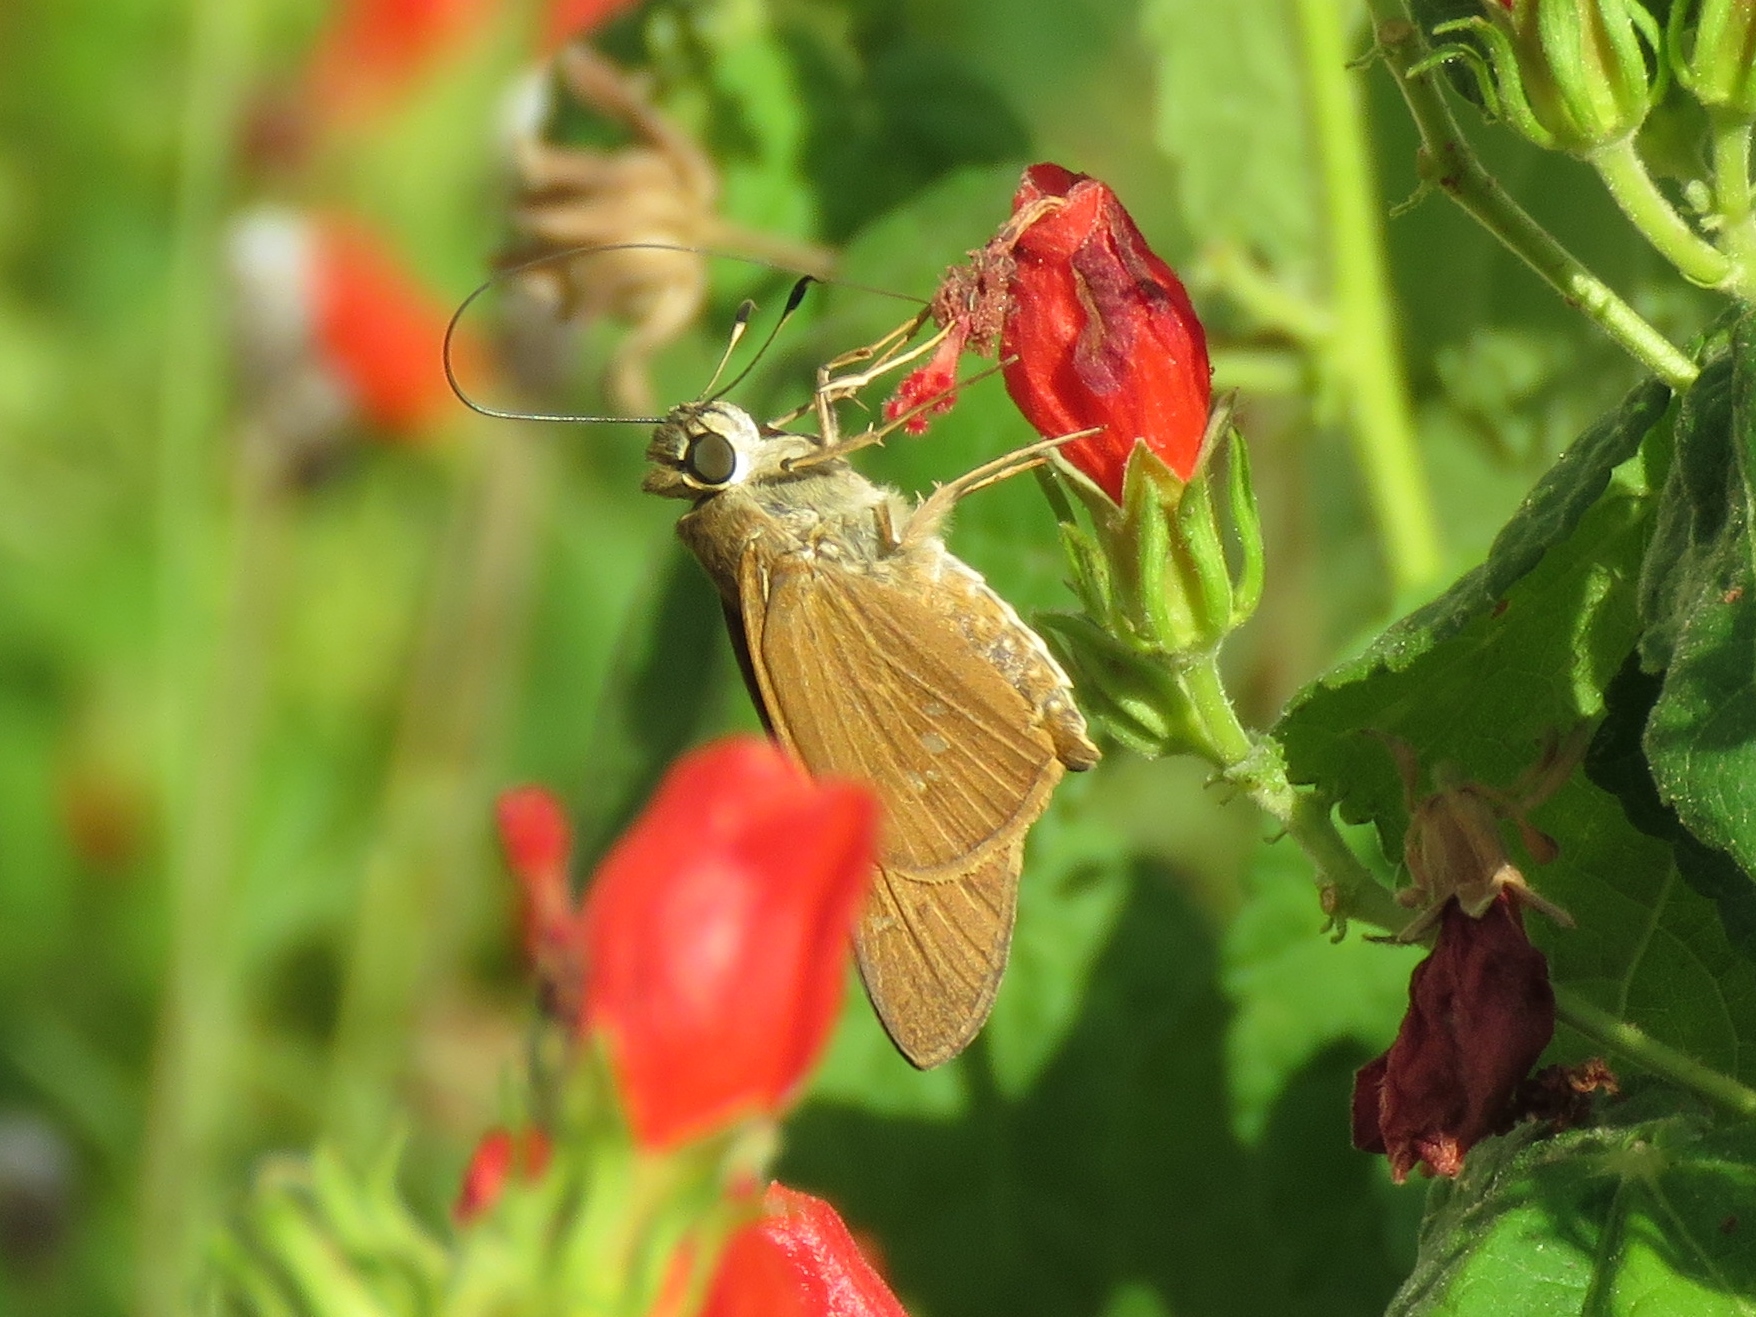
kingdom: Animalia
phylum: Arthropoda
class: Insecta
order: Lepidoptera
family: Hesperiidae
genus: Calpodes
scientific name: Calpodes ethlius
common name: Brazilian skipper
